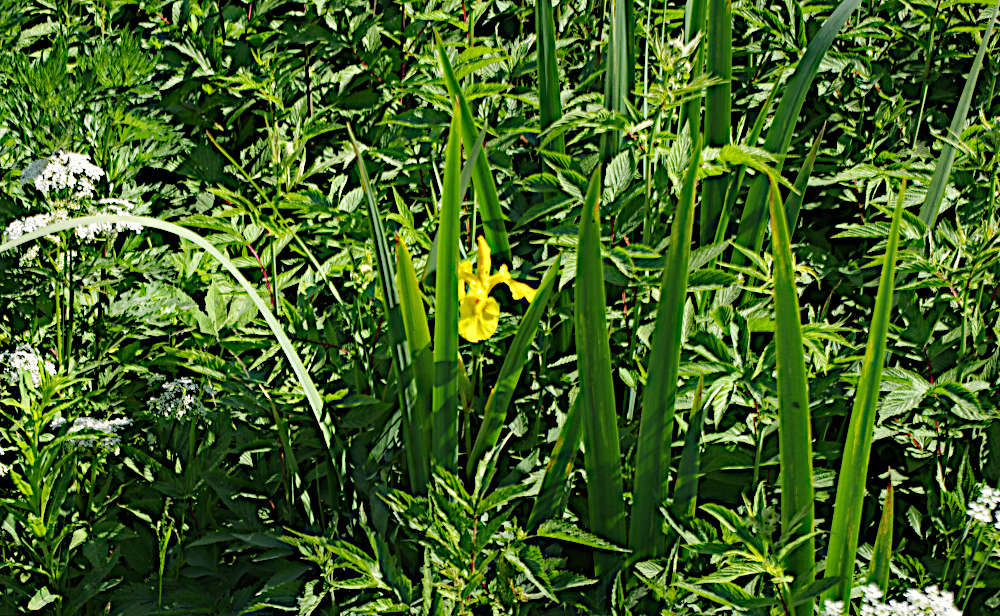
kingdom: Plantae
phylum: Tracheophyta
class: Liliopsida
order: Asparagales
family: Iridaceae
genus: Iris
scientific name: Iris pseudacorus
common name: Yellow flag
